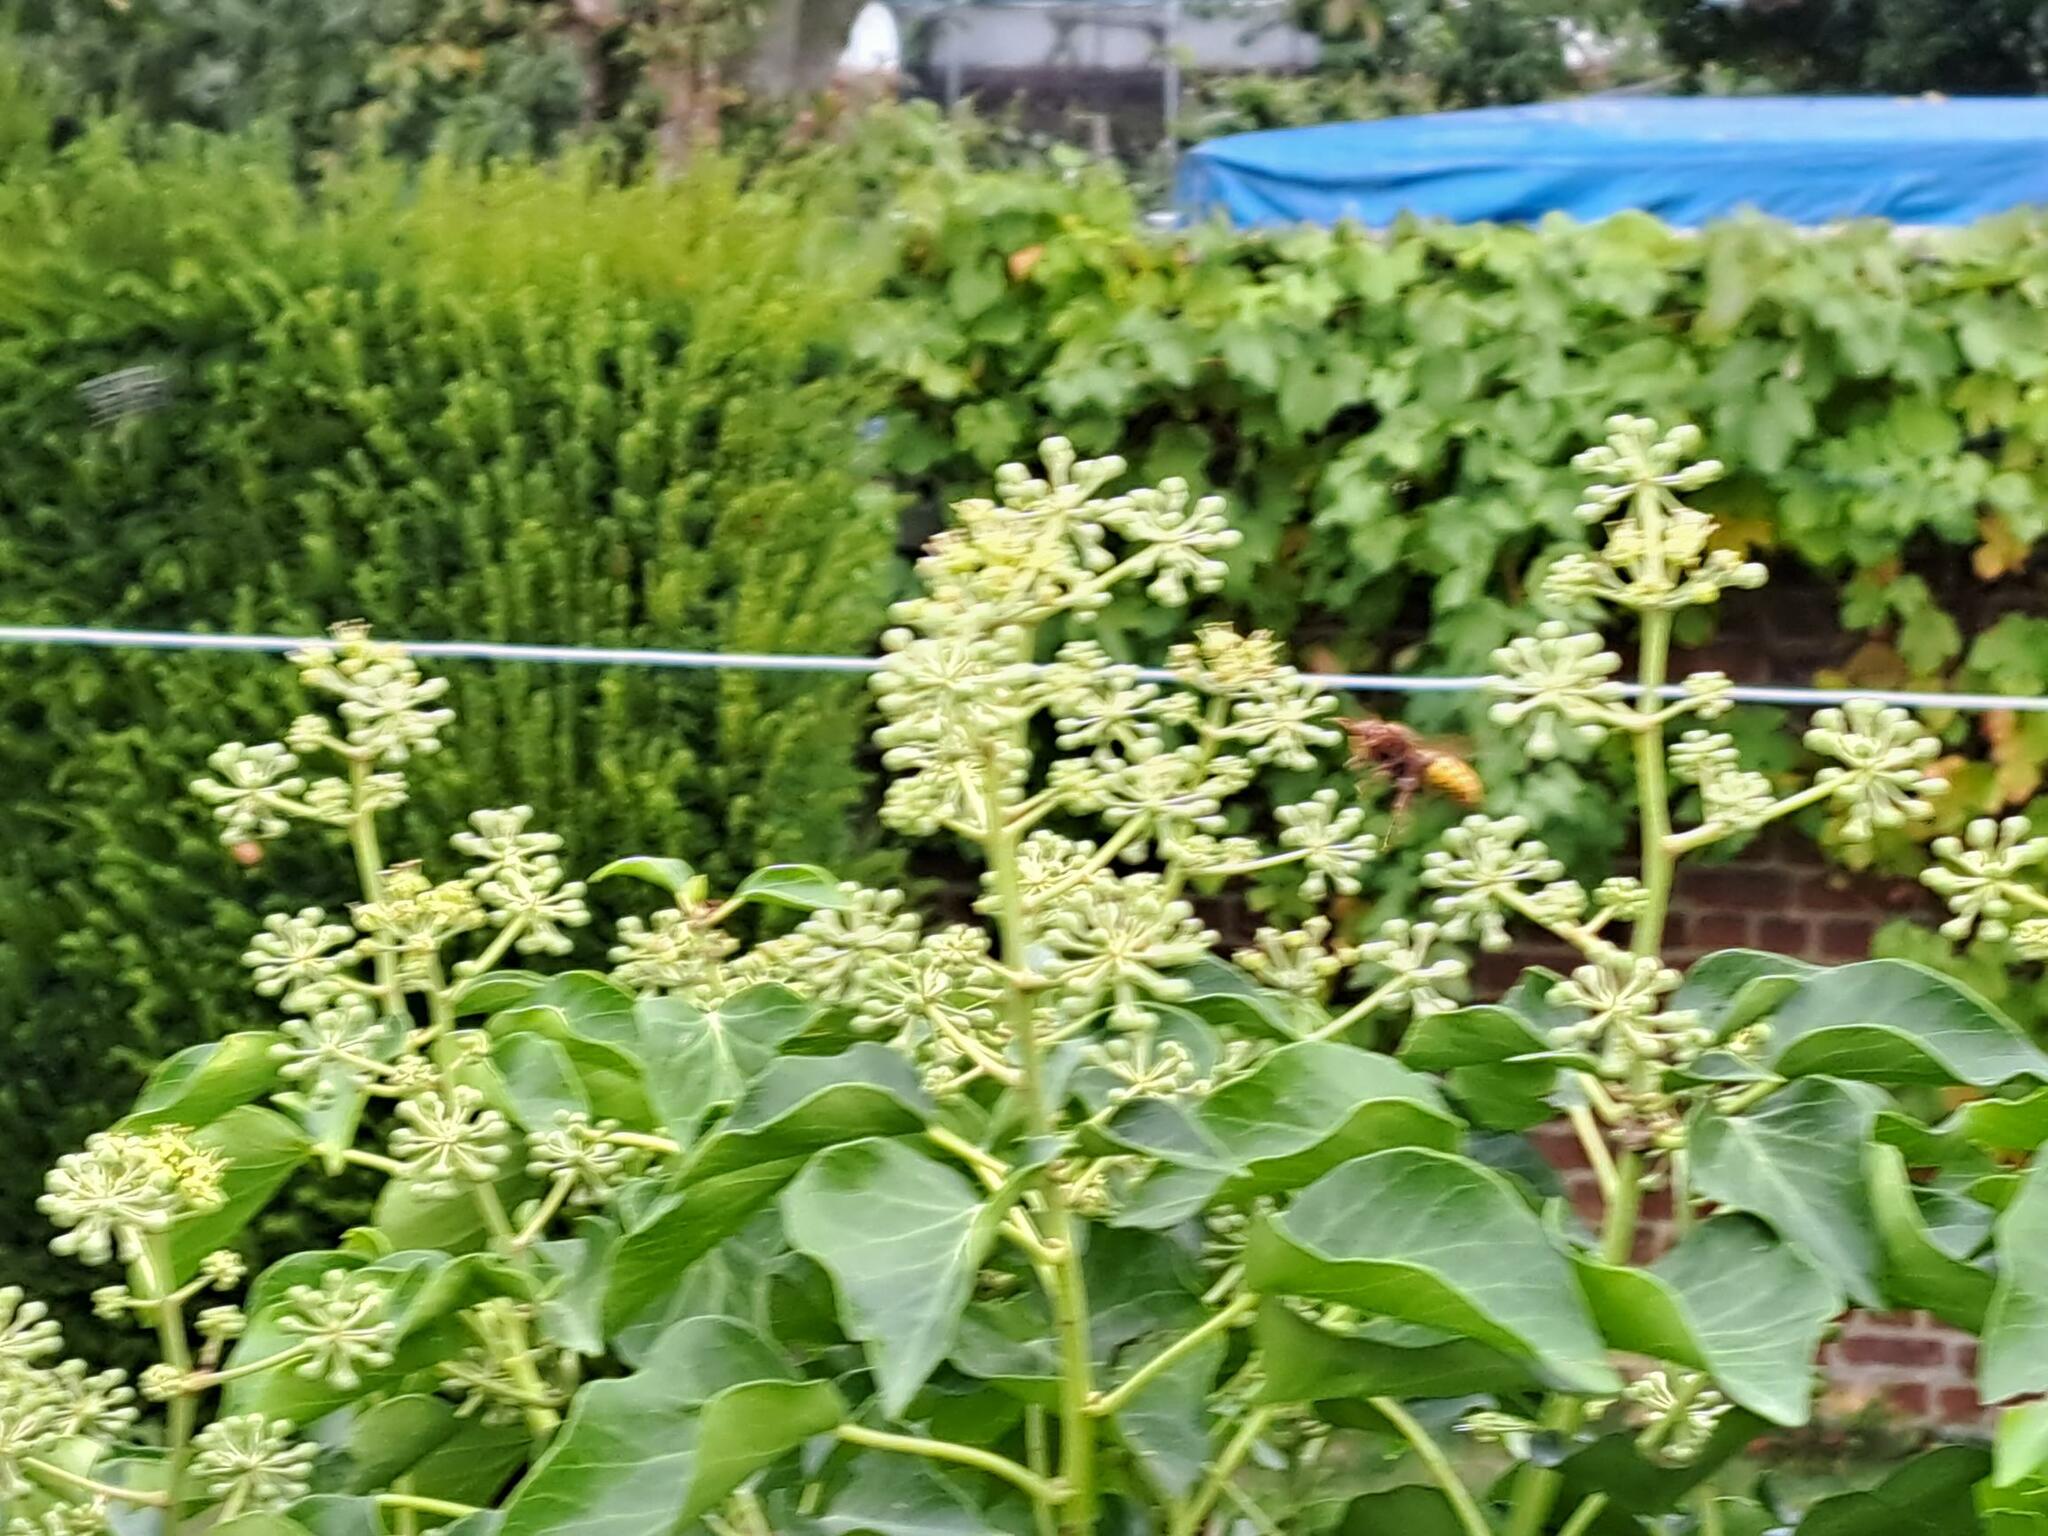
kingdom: Animalia
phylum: Arthropoda
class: Insecta
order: Hymenoptera
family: Vespidae
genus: Vespa
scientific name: Vespa crabro
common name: Hornet
